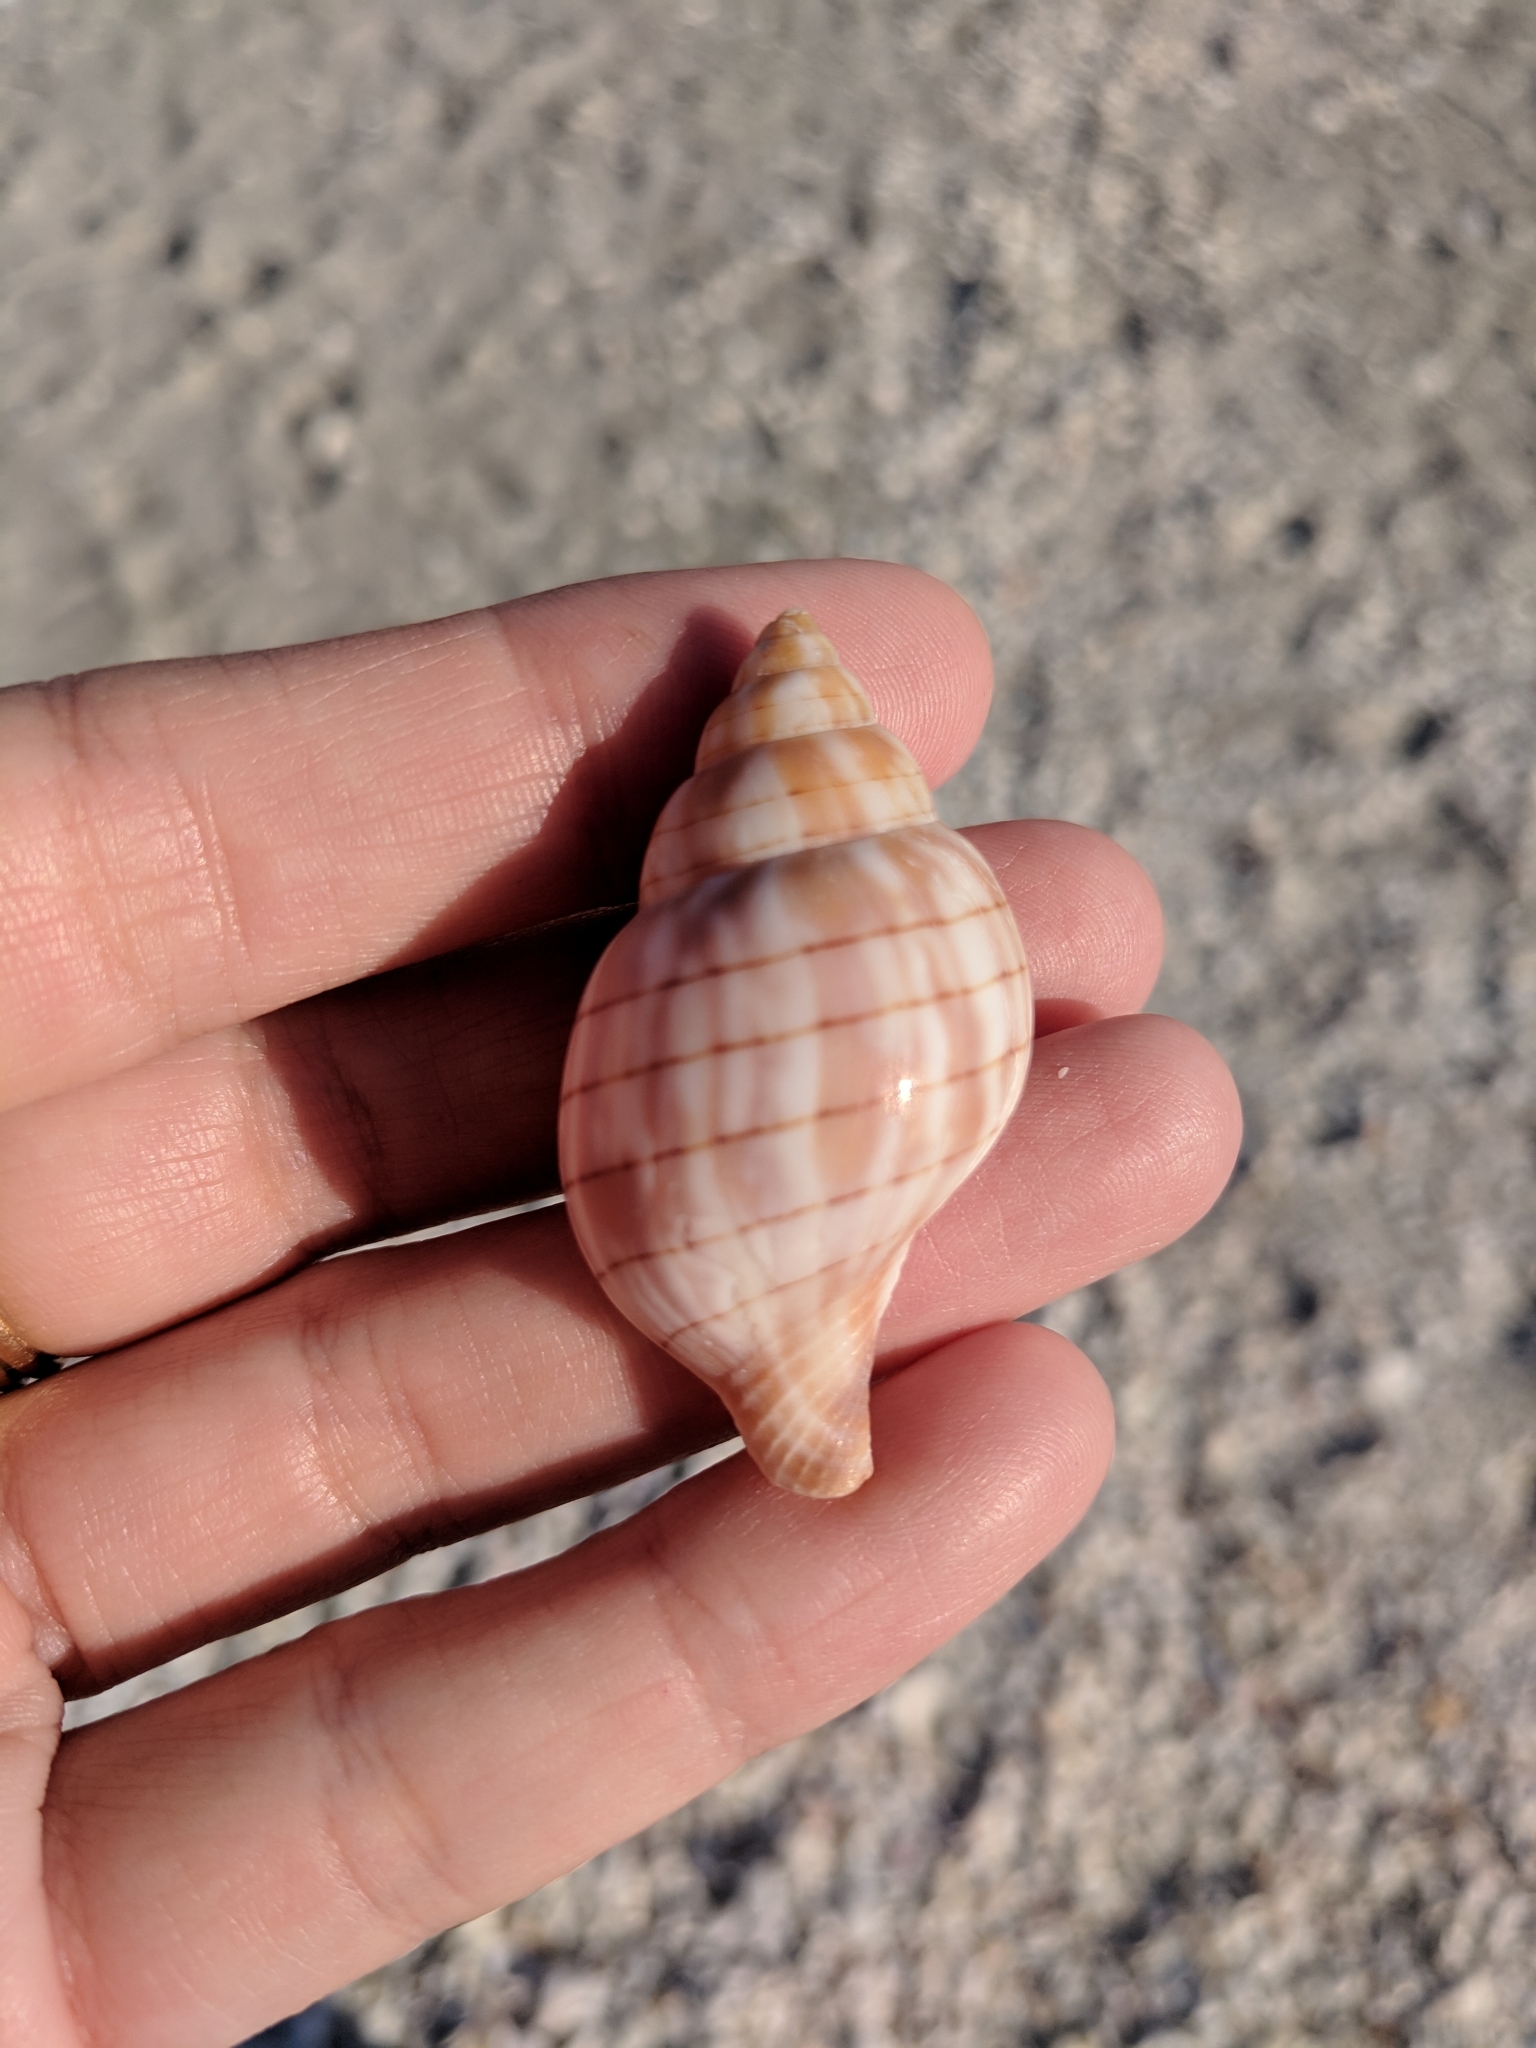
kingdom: Animalia
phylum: Mollusca
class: Gastropoda
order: Neogastropoda
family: Fasciolariidae
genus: Cinctura
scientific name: Cinctura hunteria
